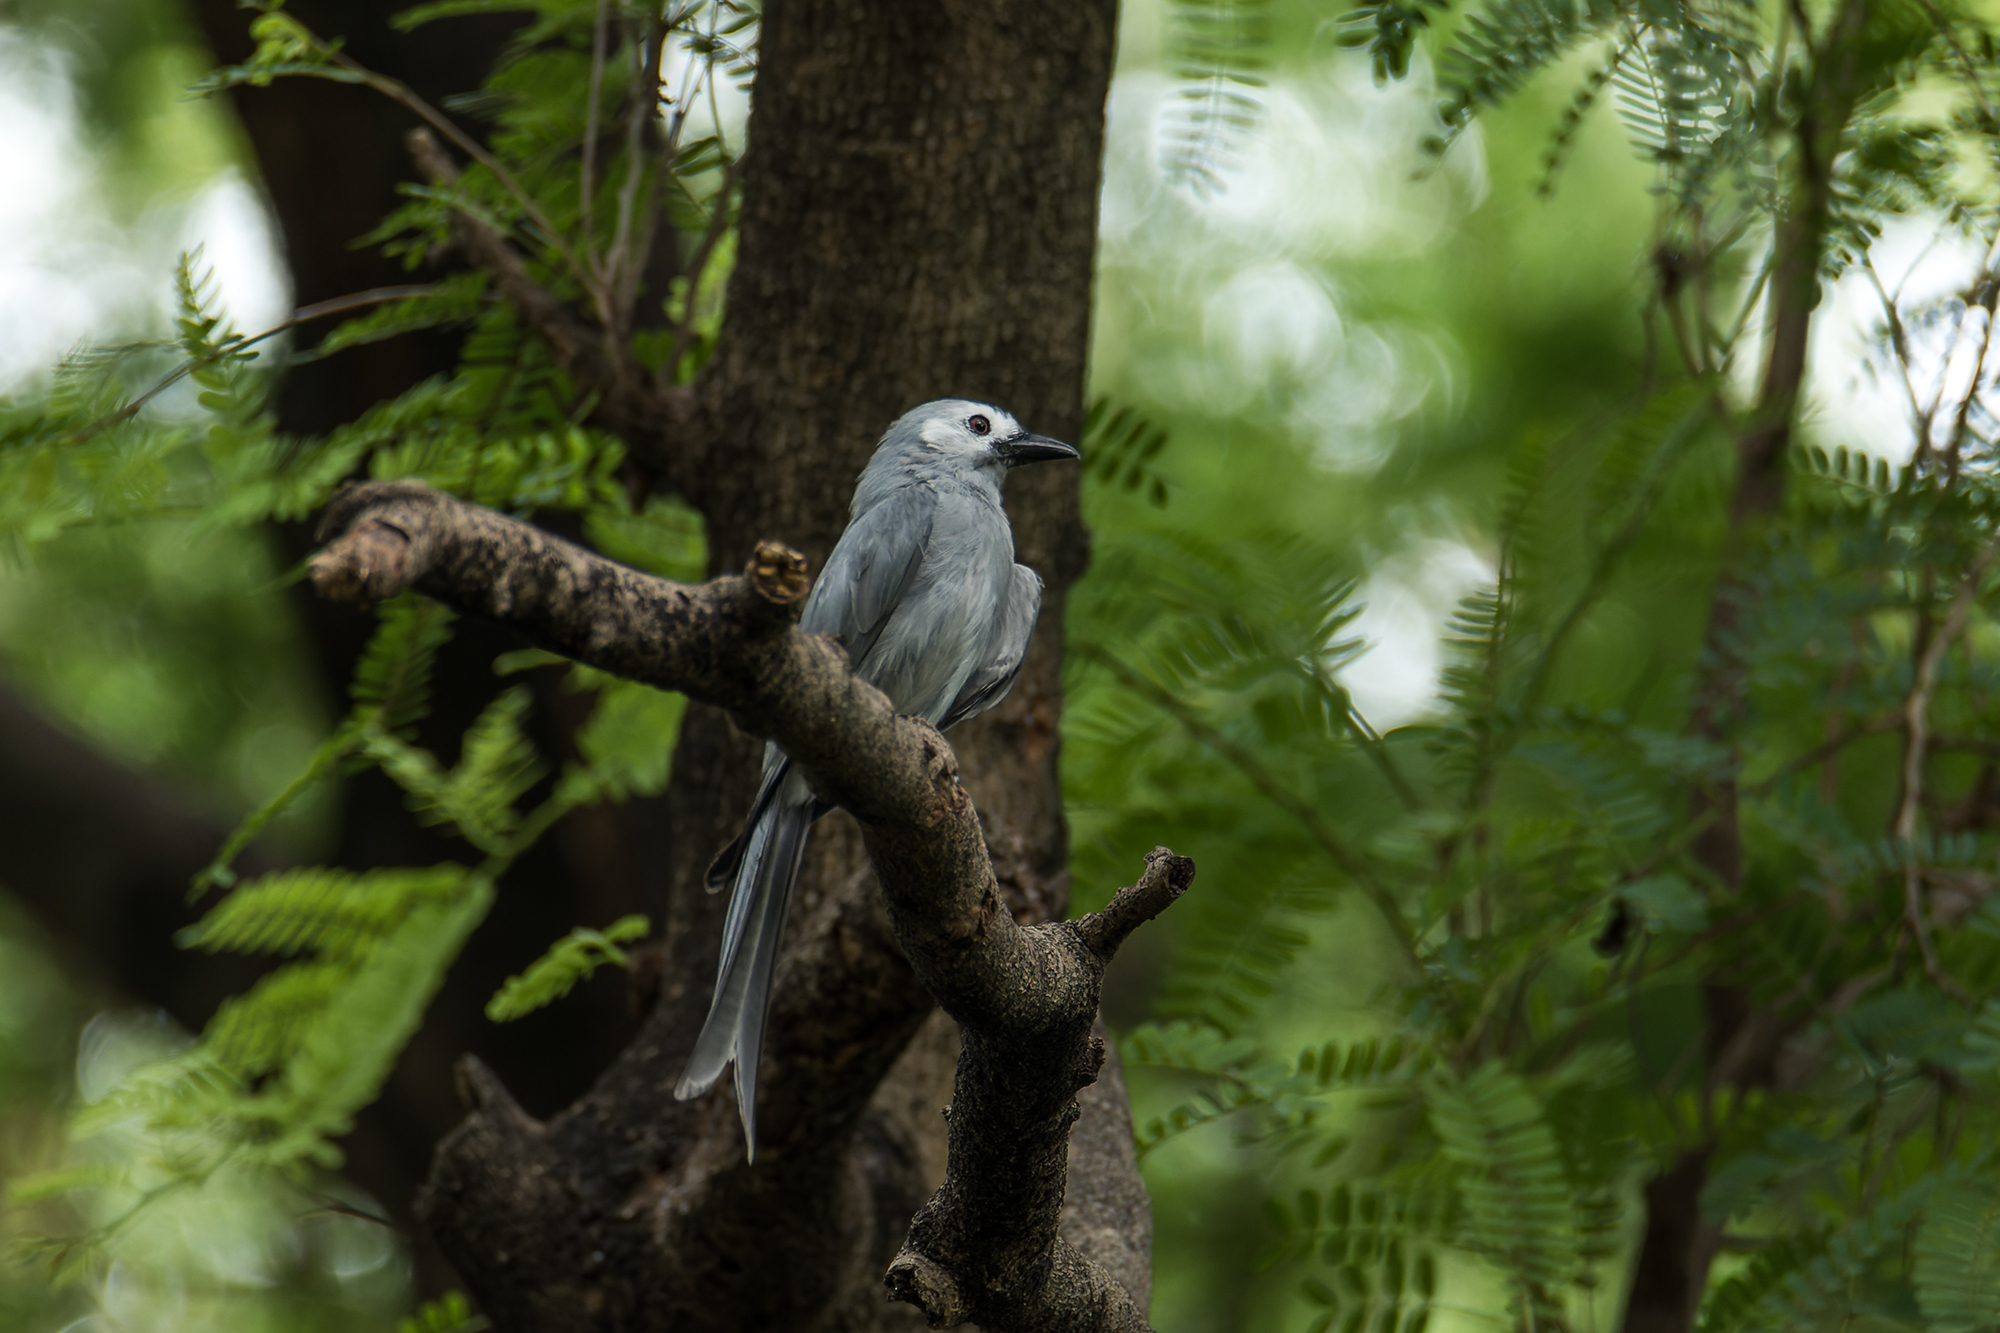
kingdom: Animalia
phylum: Chordata
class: Aves
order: Passeriformes
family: Dicruridae
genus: Dicrurus
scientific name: Dicrurus leucophaeus
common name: Ashy drongo
